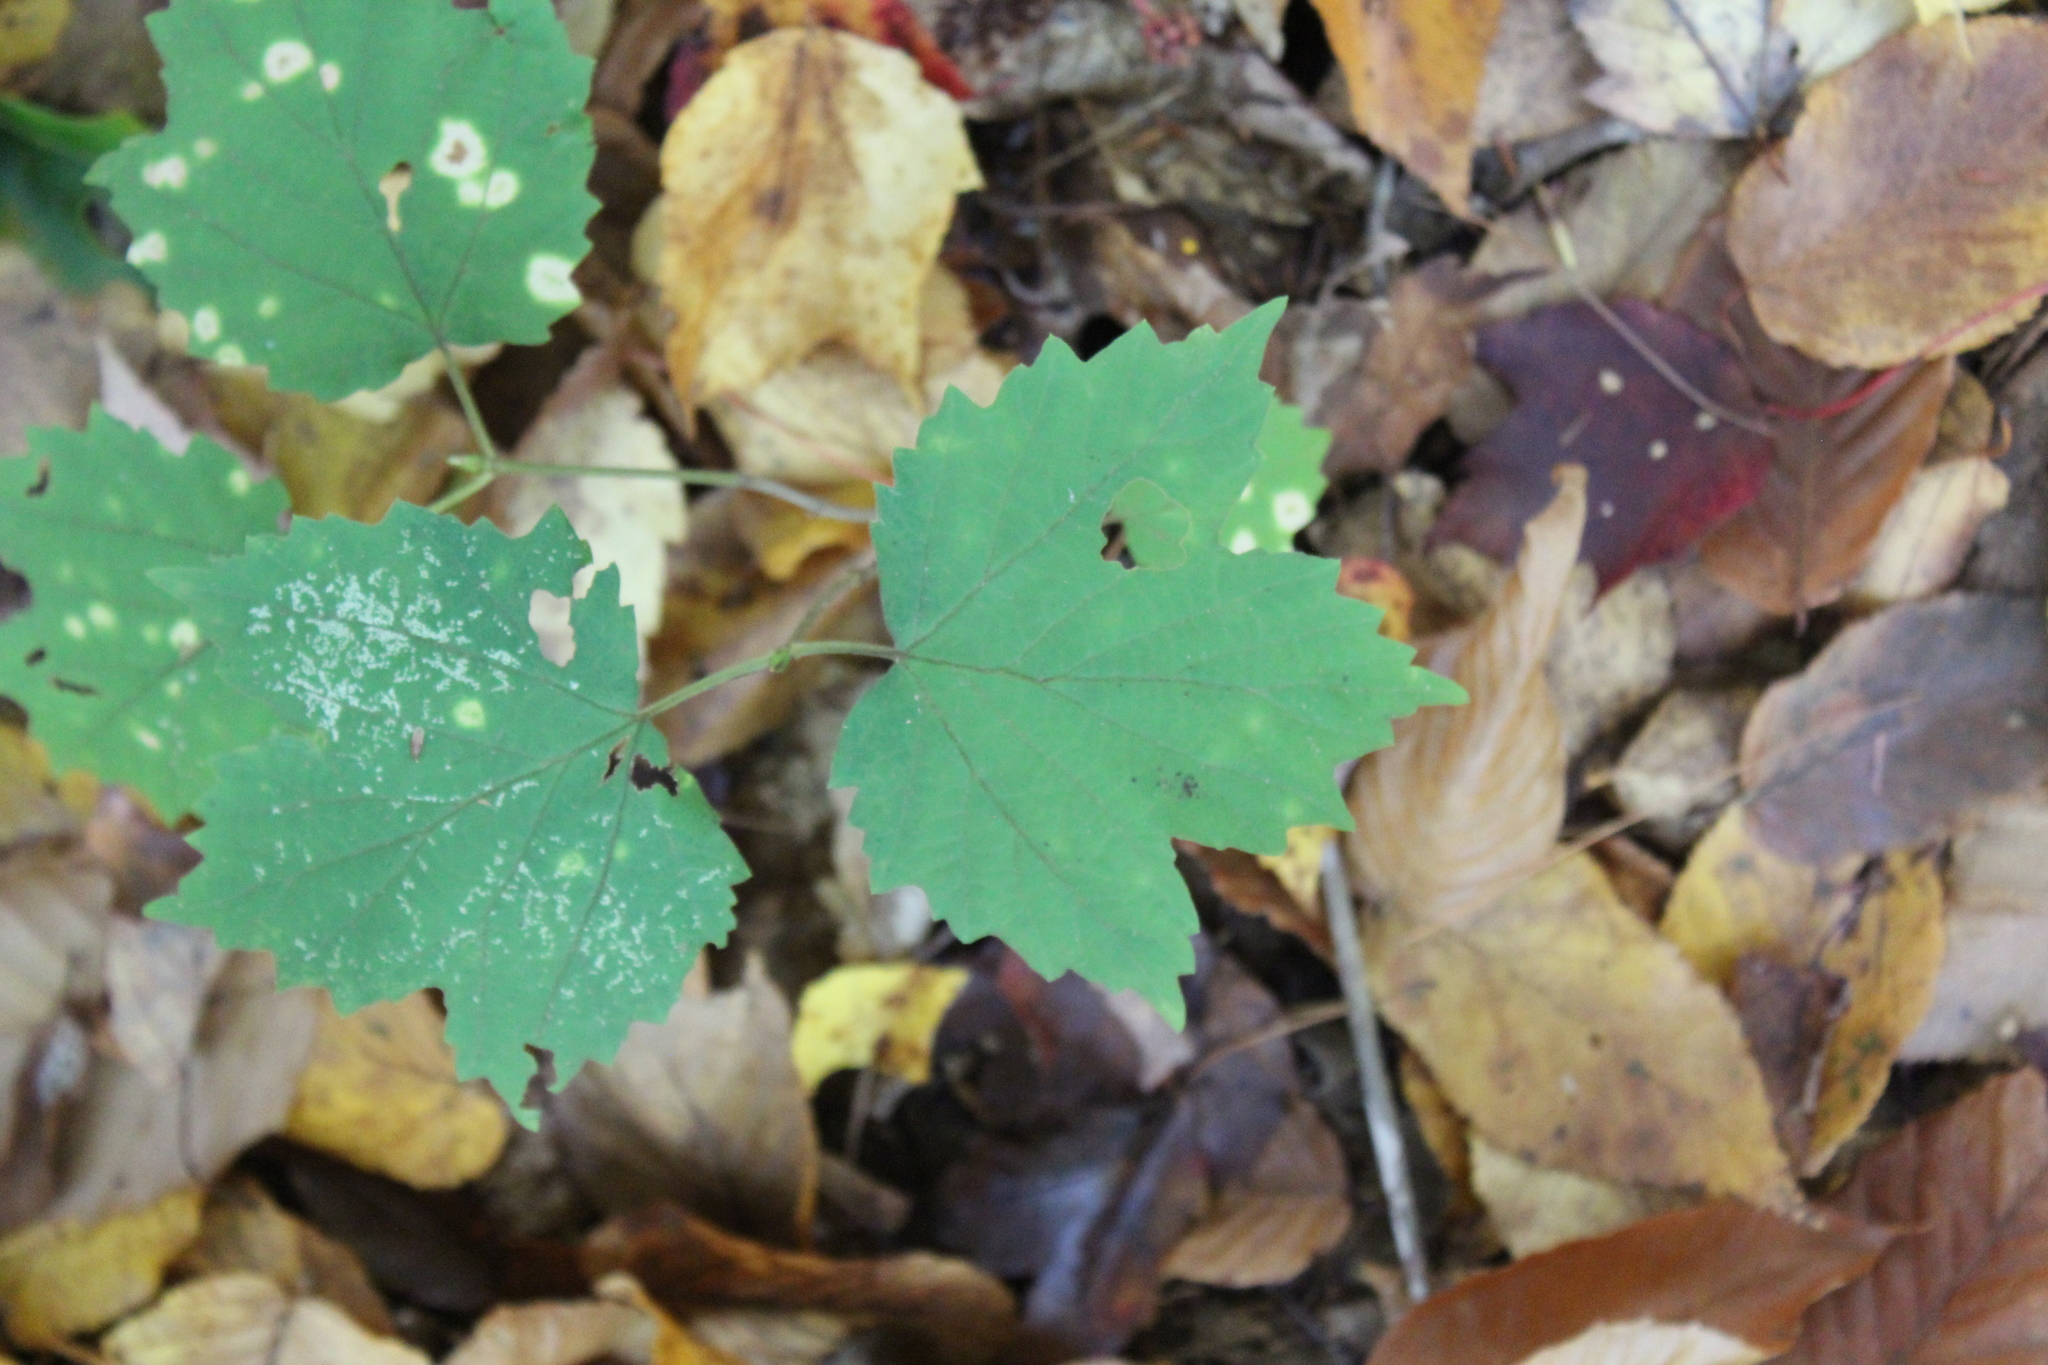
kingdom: Plantae
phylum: Tracheophyta
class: Magnoliopsida
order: Dipsacales
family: Viburnaceae
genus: Viburnum
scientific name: Viburnum acerifolium
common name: Dockmackie
